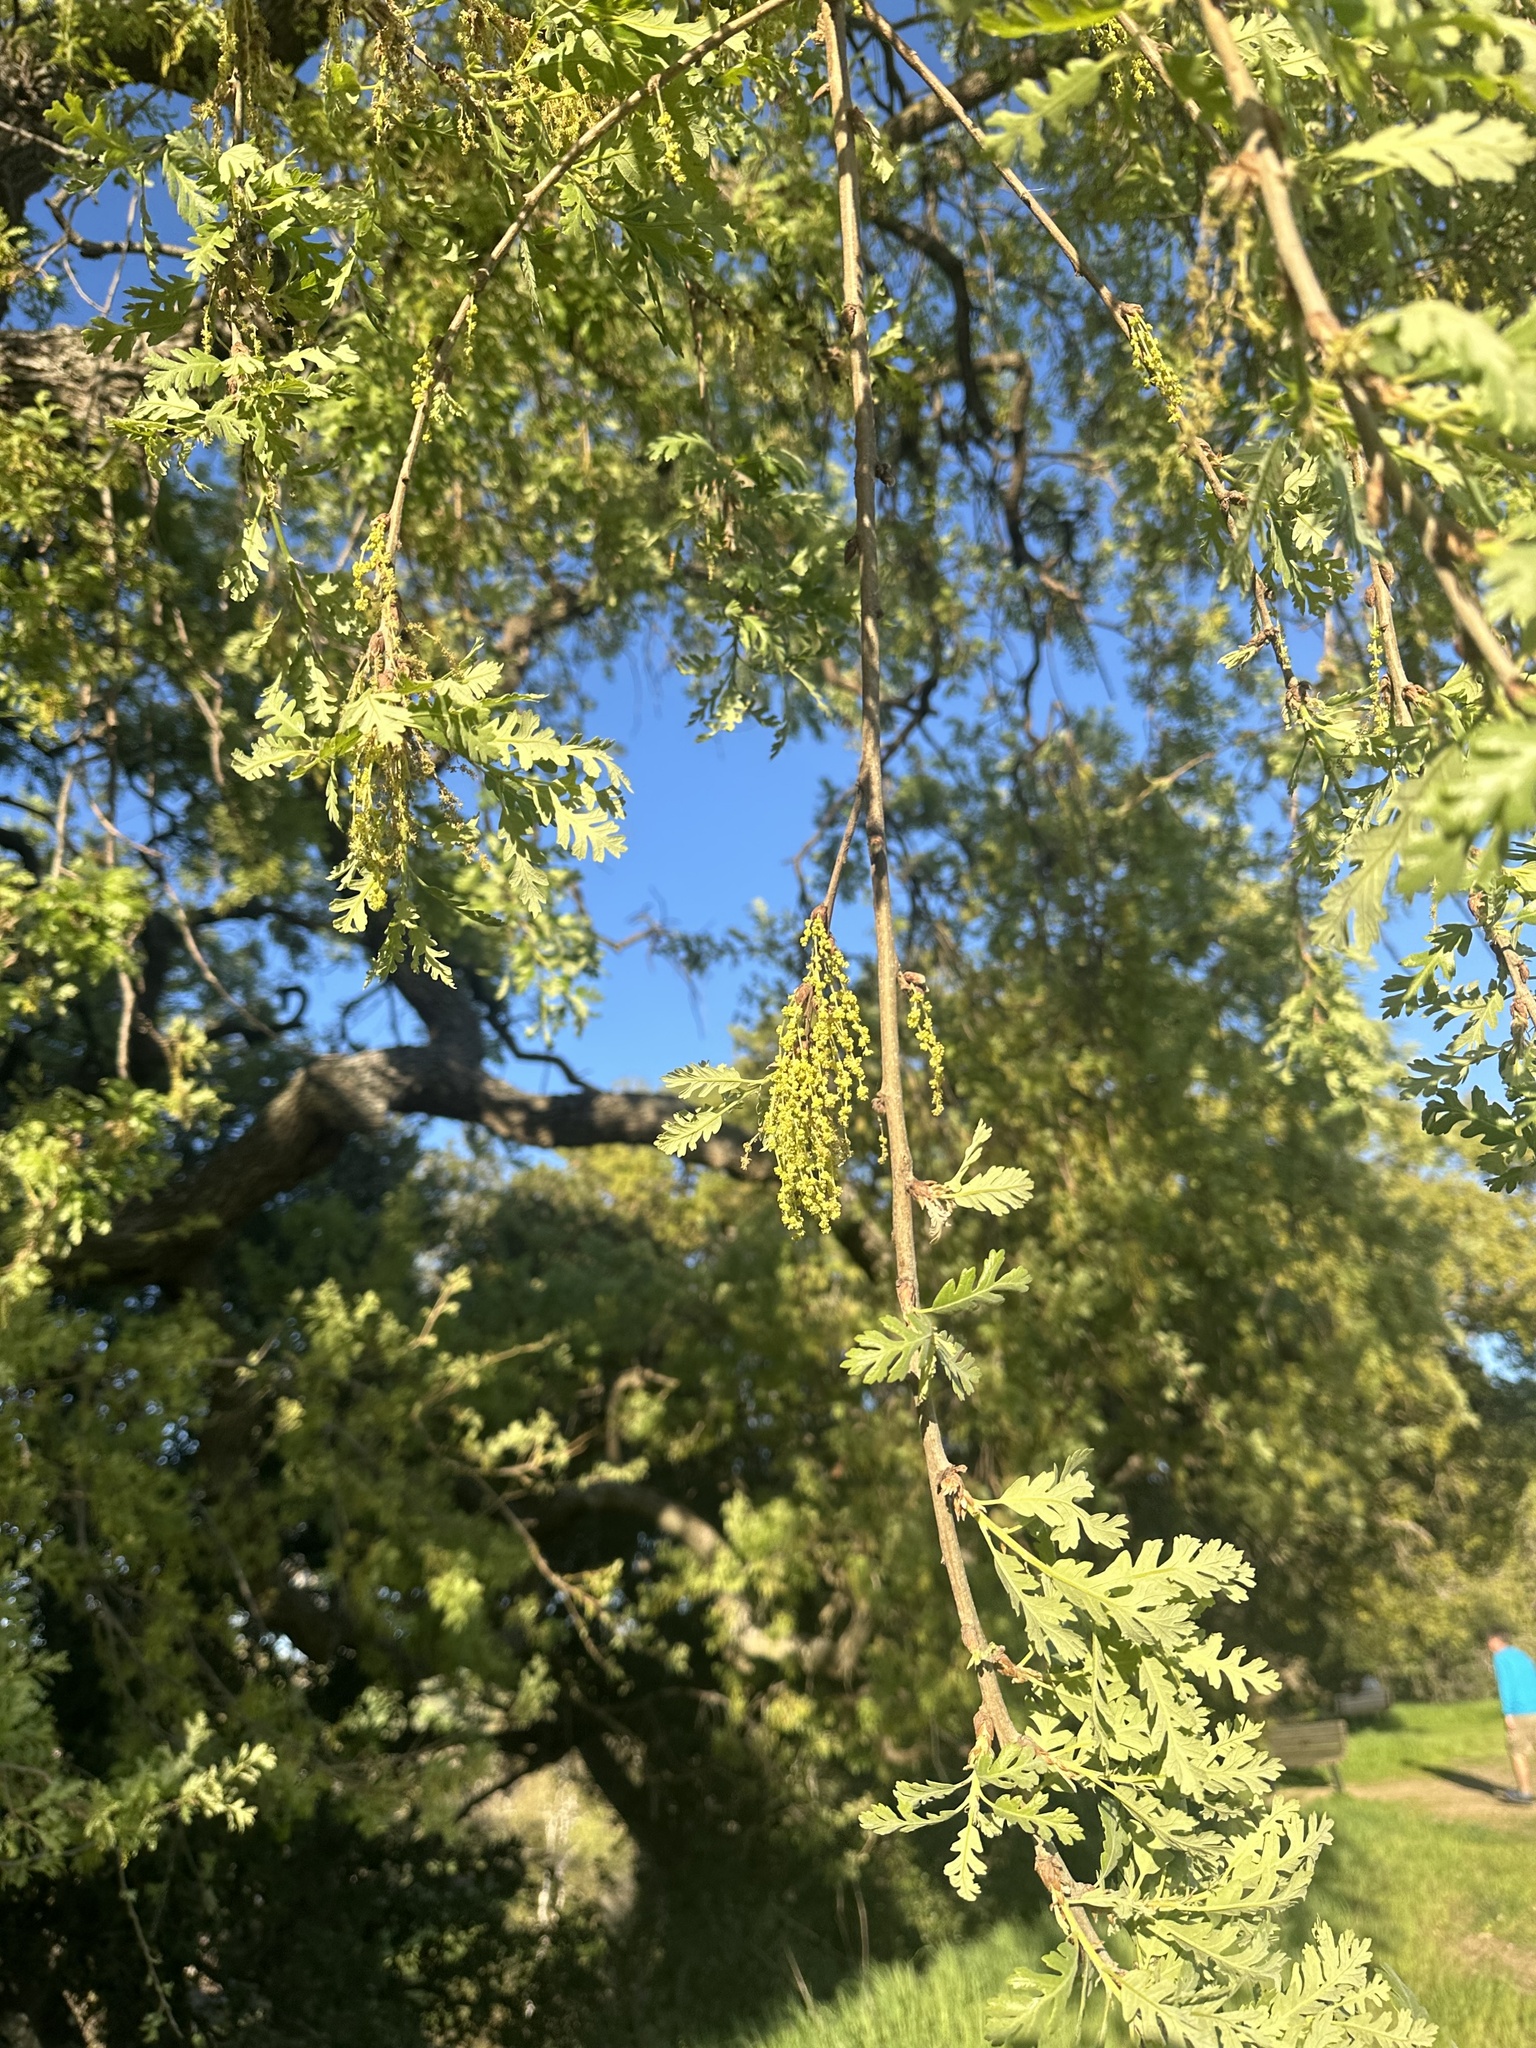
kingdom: Plantae
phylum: Tracheophyta
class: Magnoliopsida
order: Fagales
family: Fagaceae
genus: Quercus
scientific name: Quercus lobata
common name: Valley oak
